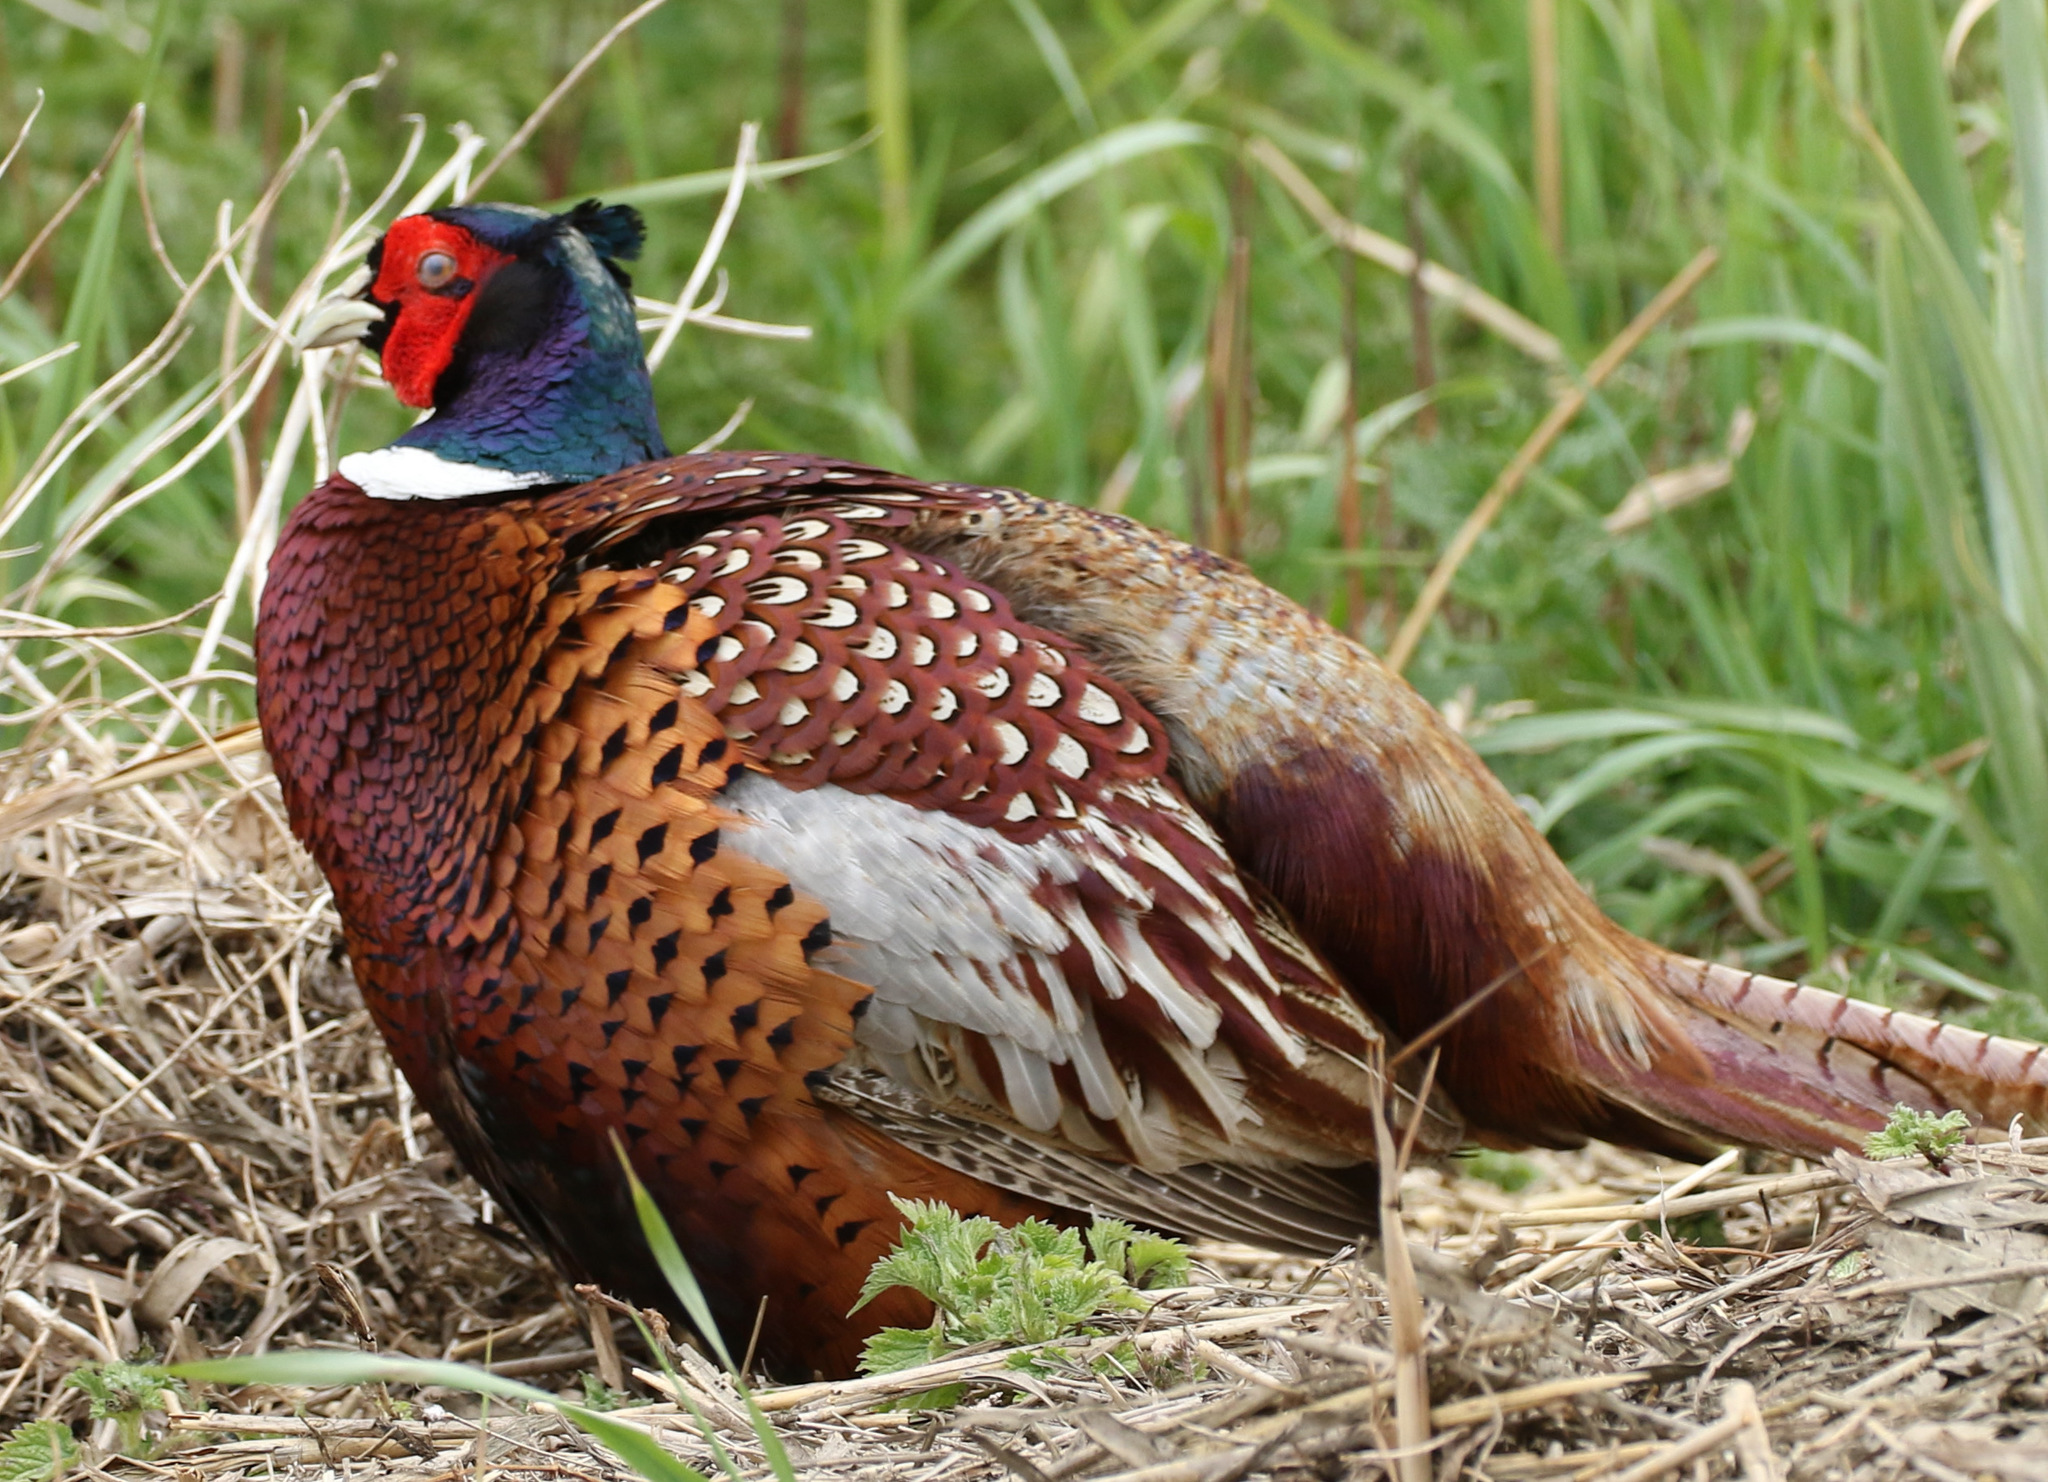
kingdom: Animalia
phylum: Chordata
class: Aves
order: Galliformes
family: Phasianidae
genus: Phasianus
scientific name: Phasianus colchicus
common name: Common pheasant
